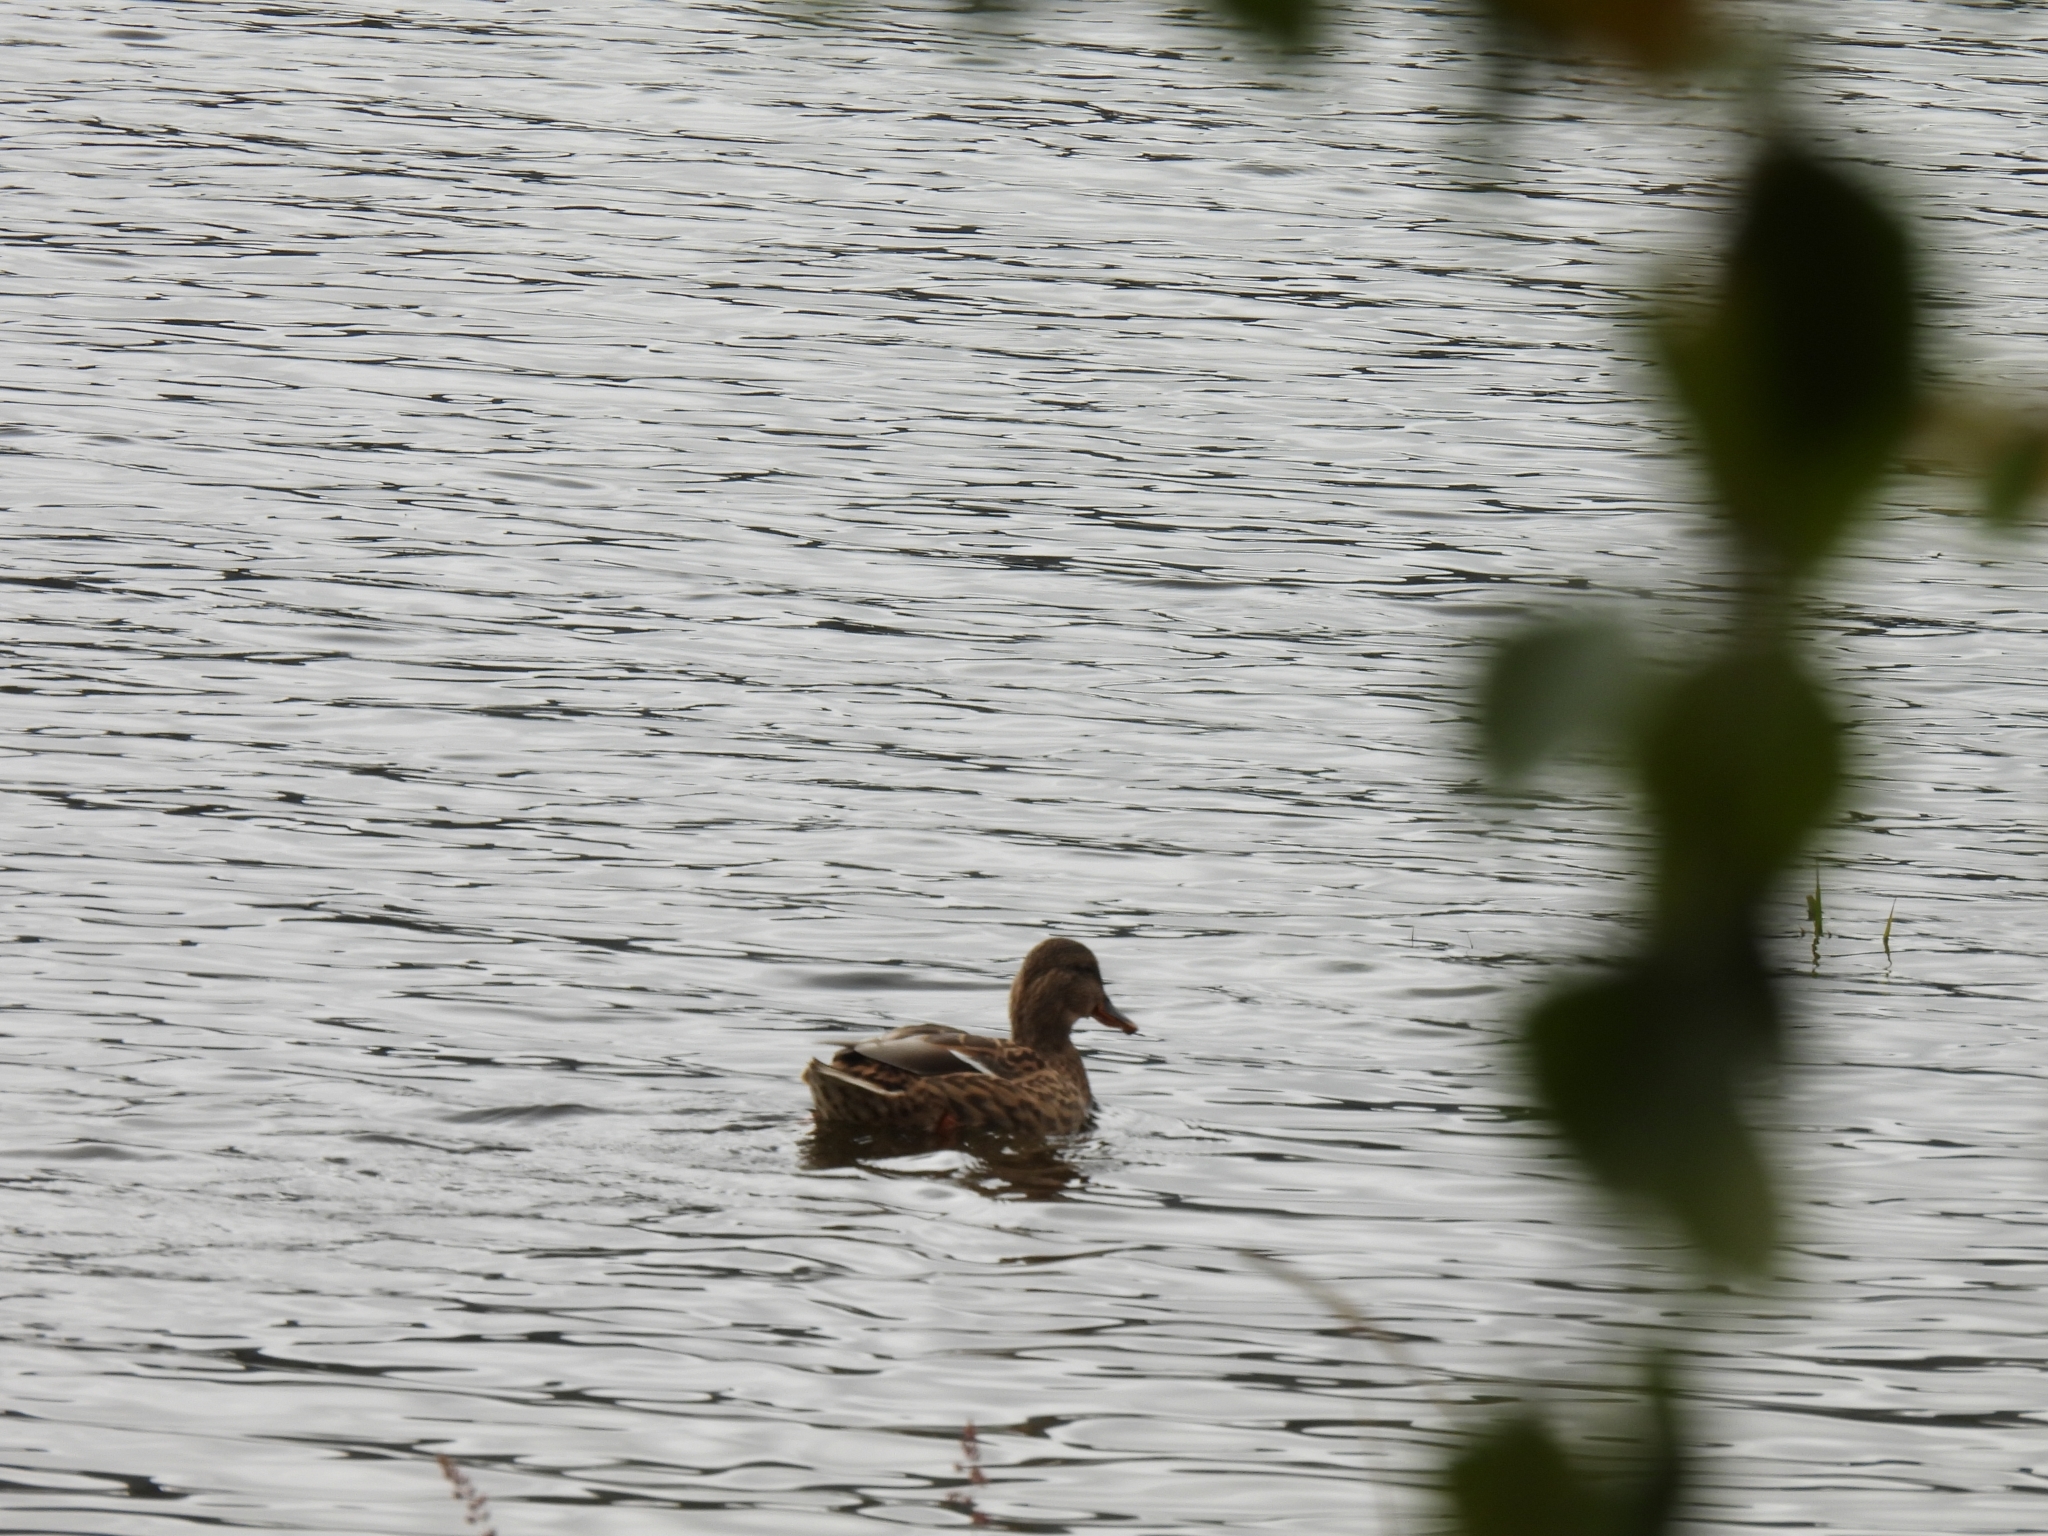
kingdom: Animalia
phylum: Chordata
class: Aves
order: Anseriformes
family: Anatidae
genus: Anas
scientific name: Anas platyrhynchos
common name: Mallard
